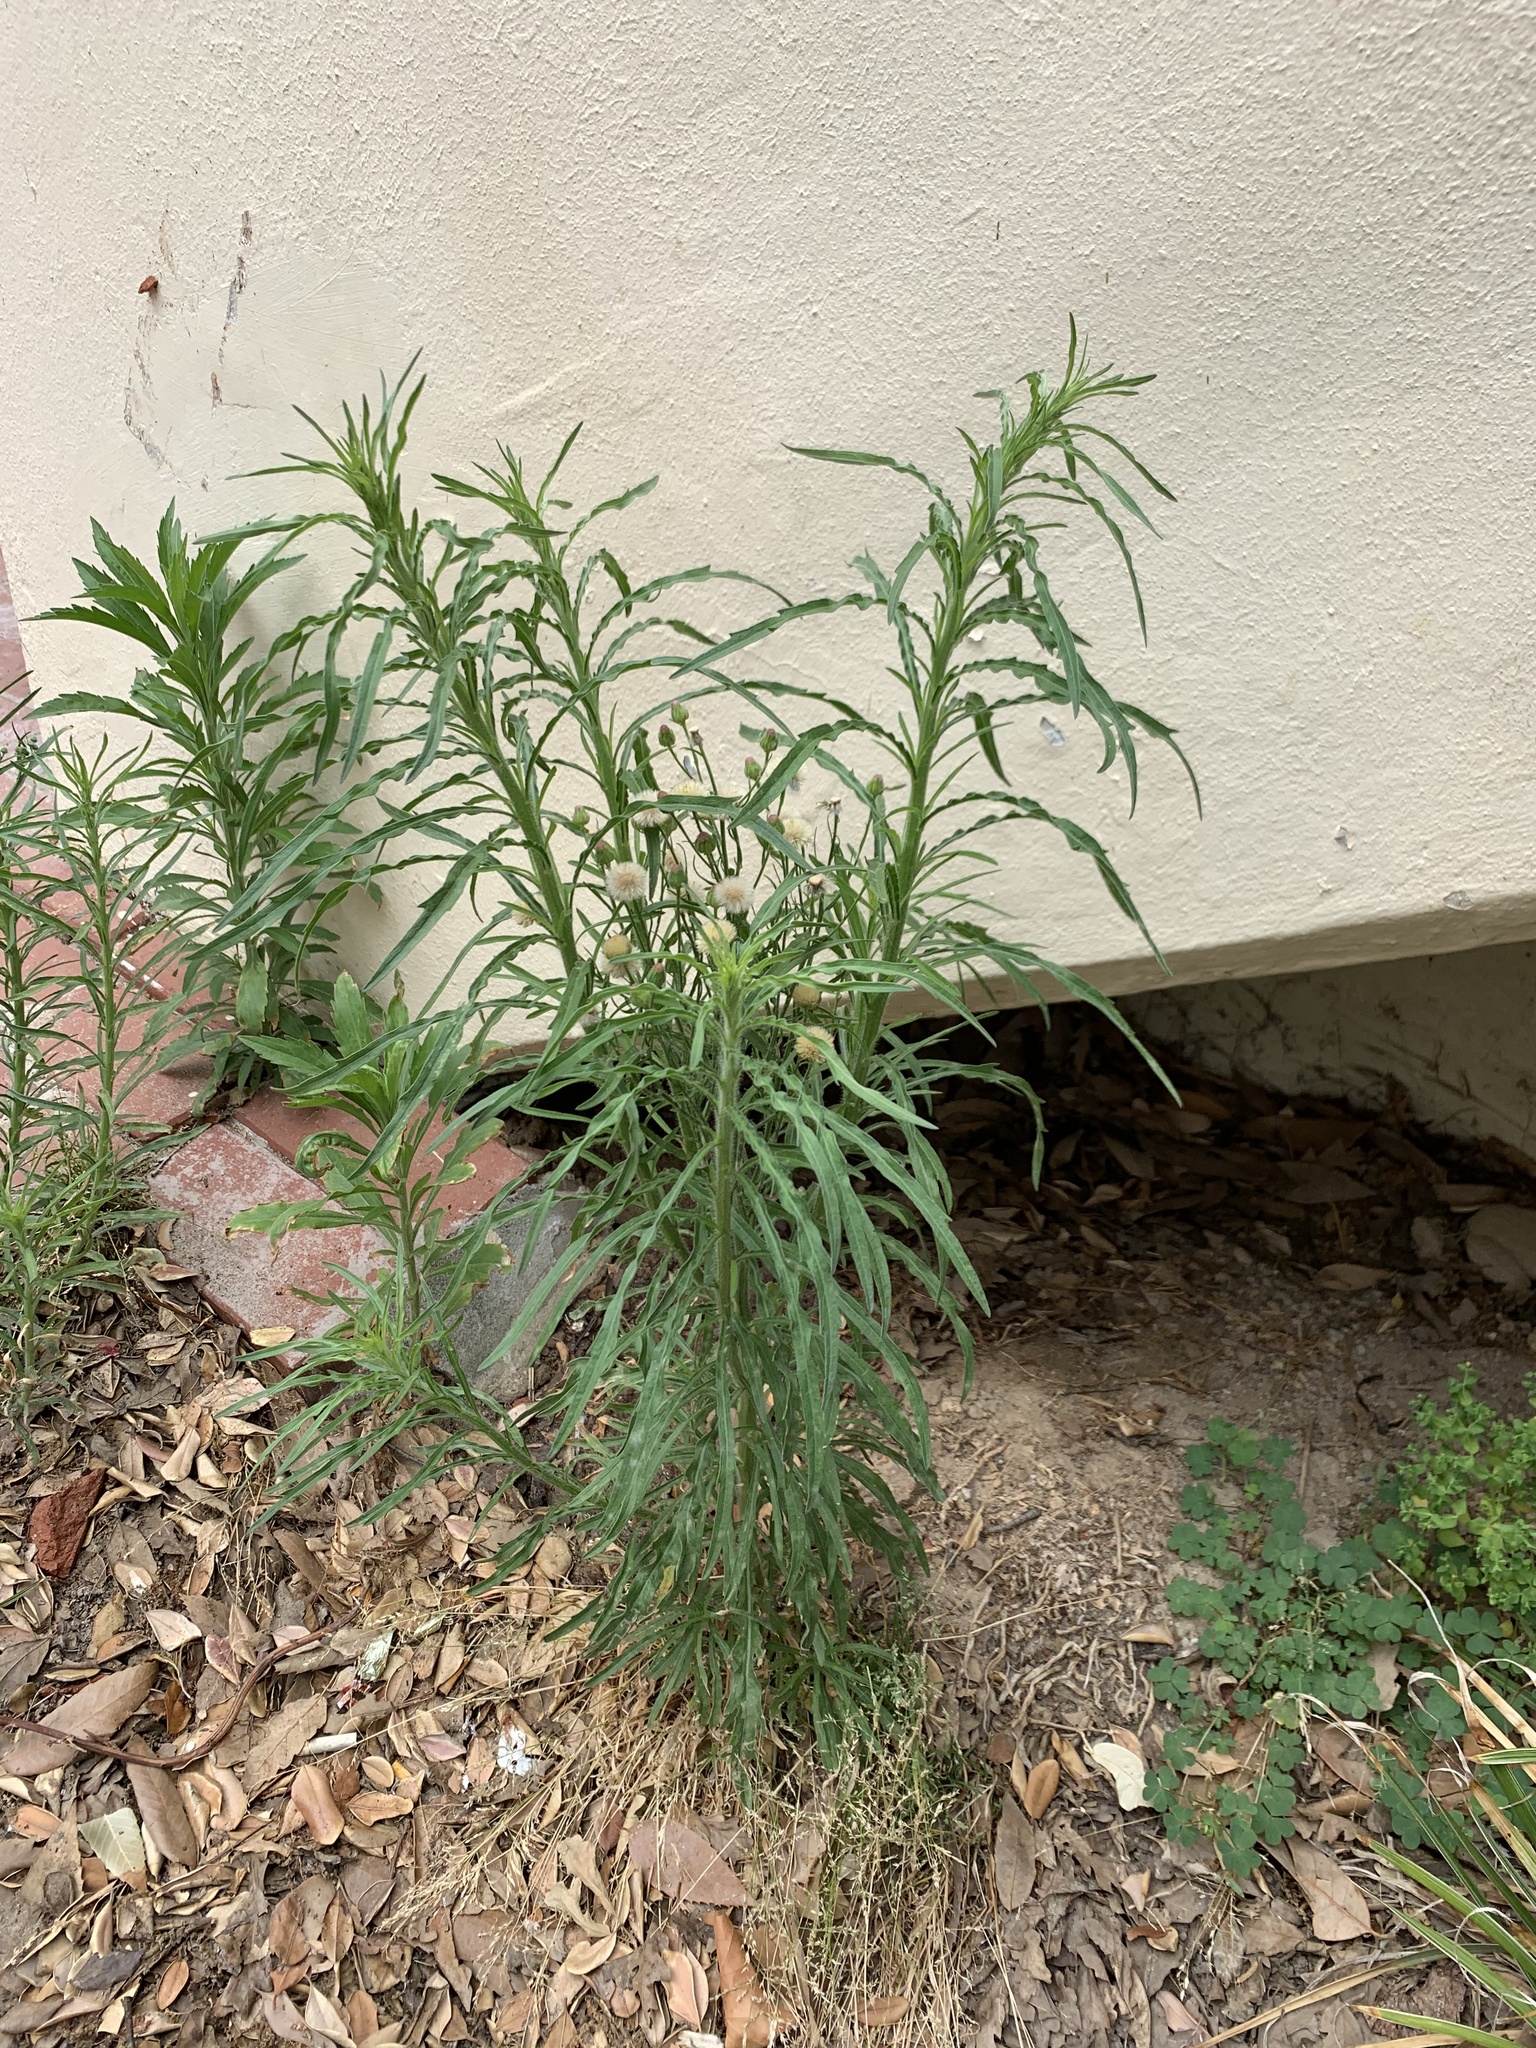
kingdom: Plantae
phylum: Tracheophyta
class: Magnoliopsida
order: Asterales
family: Asteraceae
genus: Erigeron
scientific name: Erigeron bonariensis
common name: Argentine fleabane
